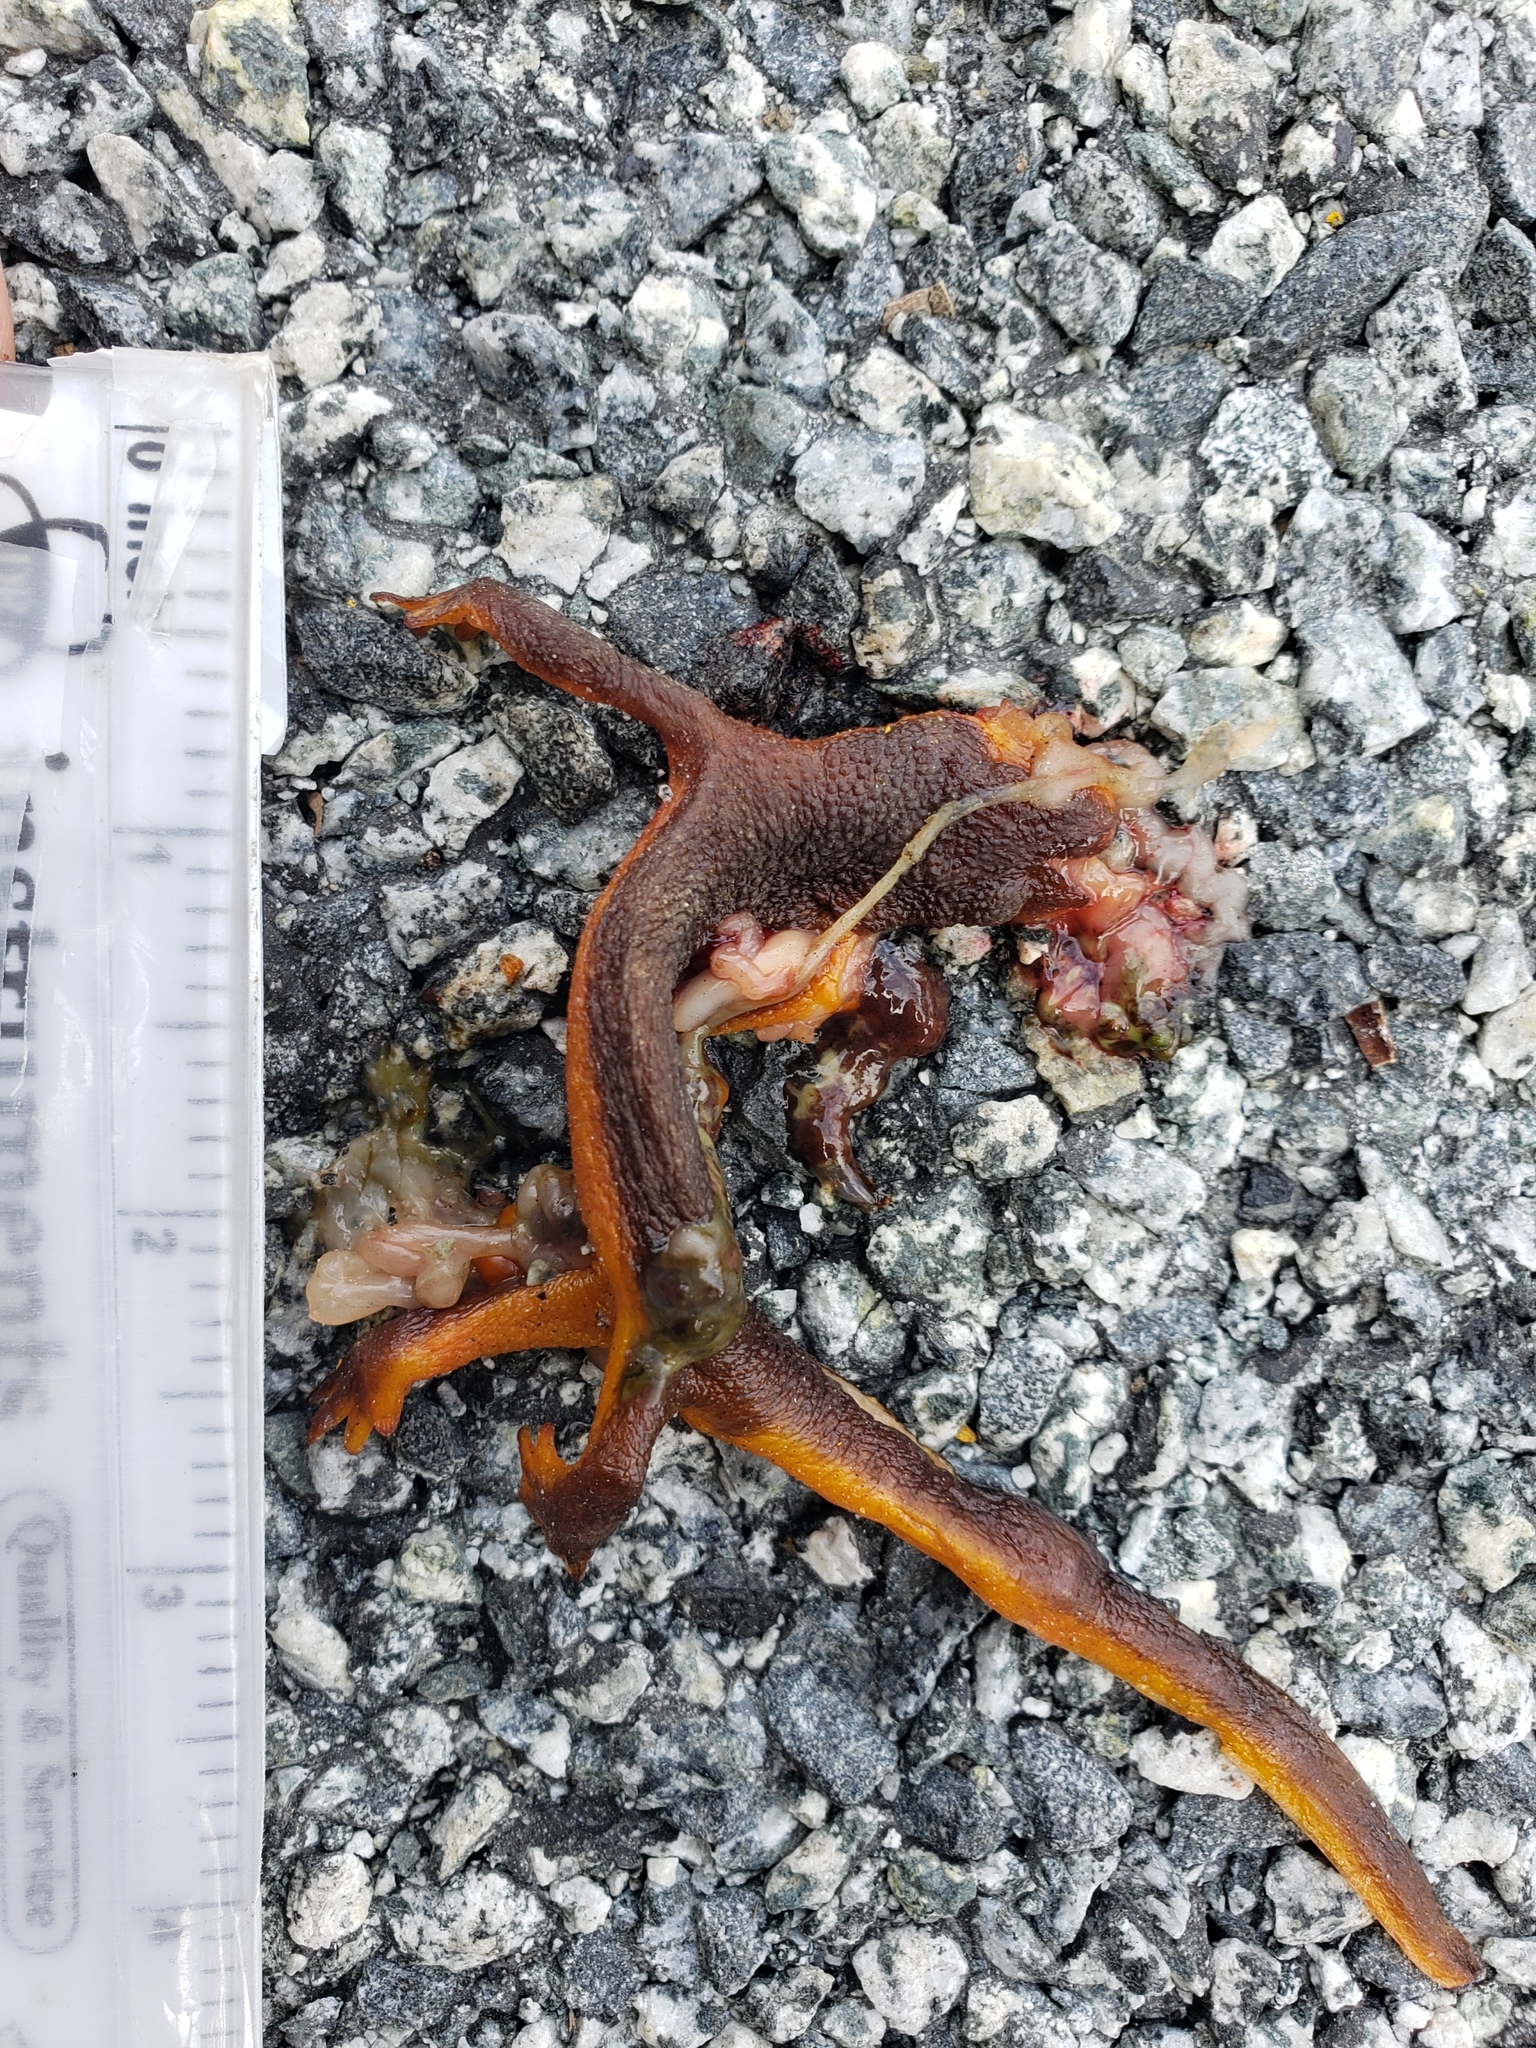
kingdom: Animalia
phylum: Chordata
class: Amphibia
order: Caudata
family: Salamandridae
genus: Taricha
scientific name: Taricha
